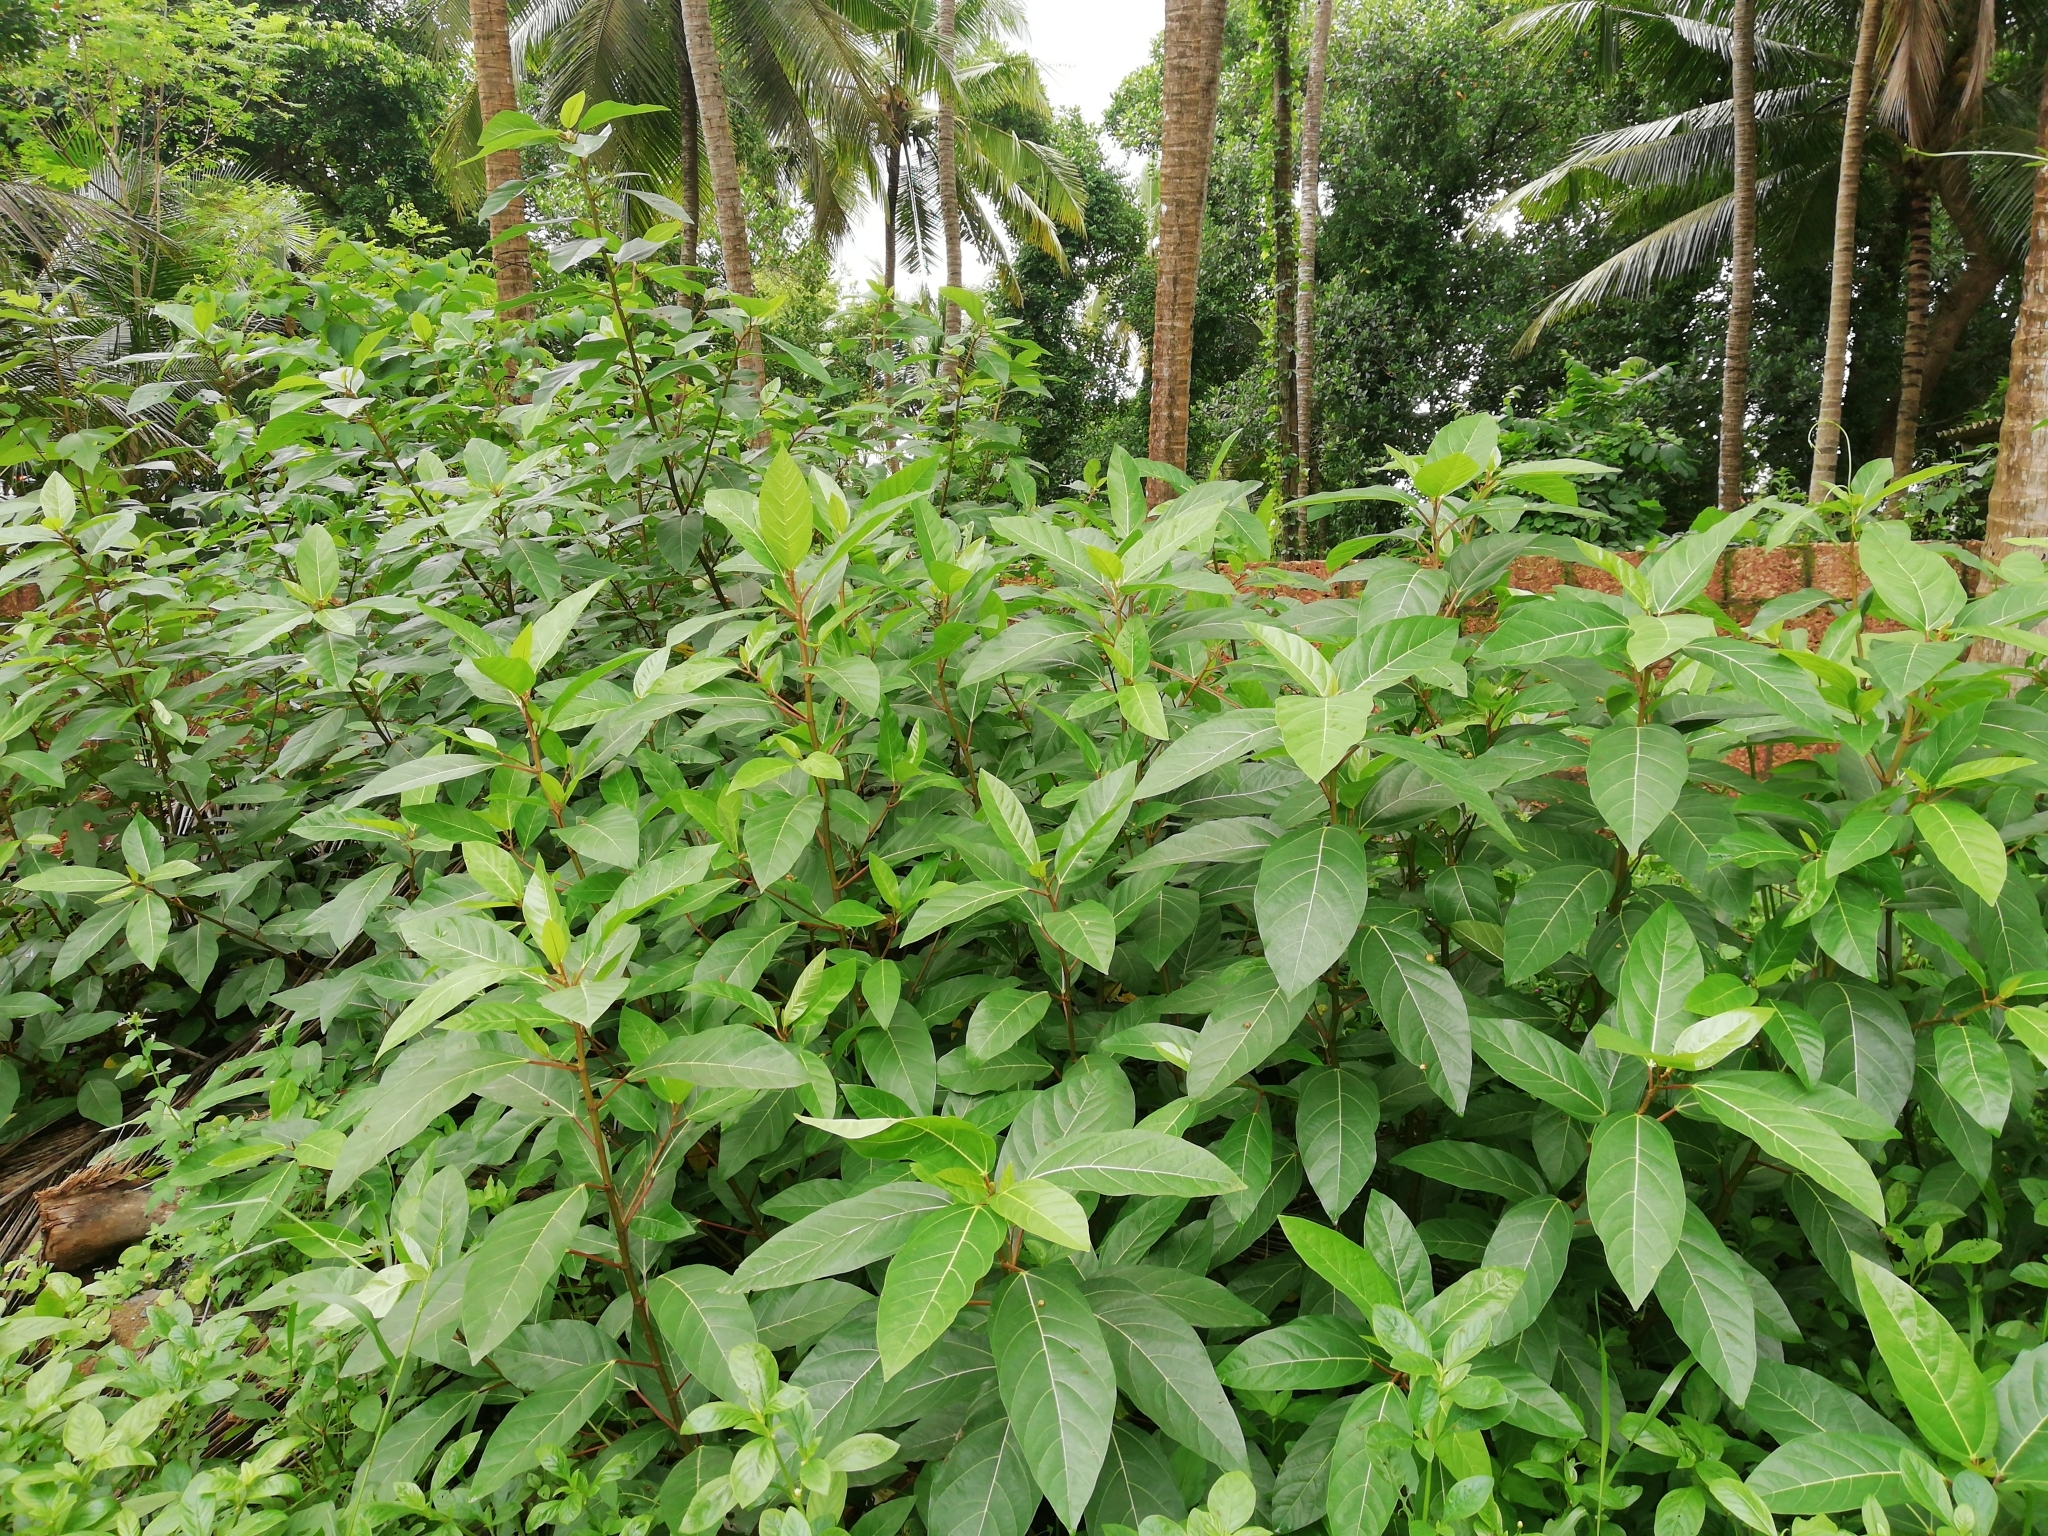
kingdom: Plantae
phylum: Tracheophyta
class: Magnoliopsida
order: Rosales
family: Moraceae
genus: Ficus
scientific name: Ficus racemosa
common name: Cluster fig
